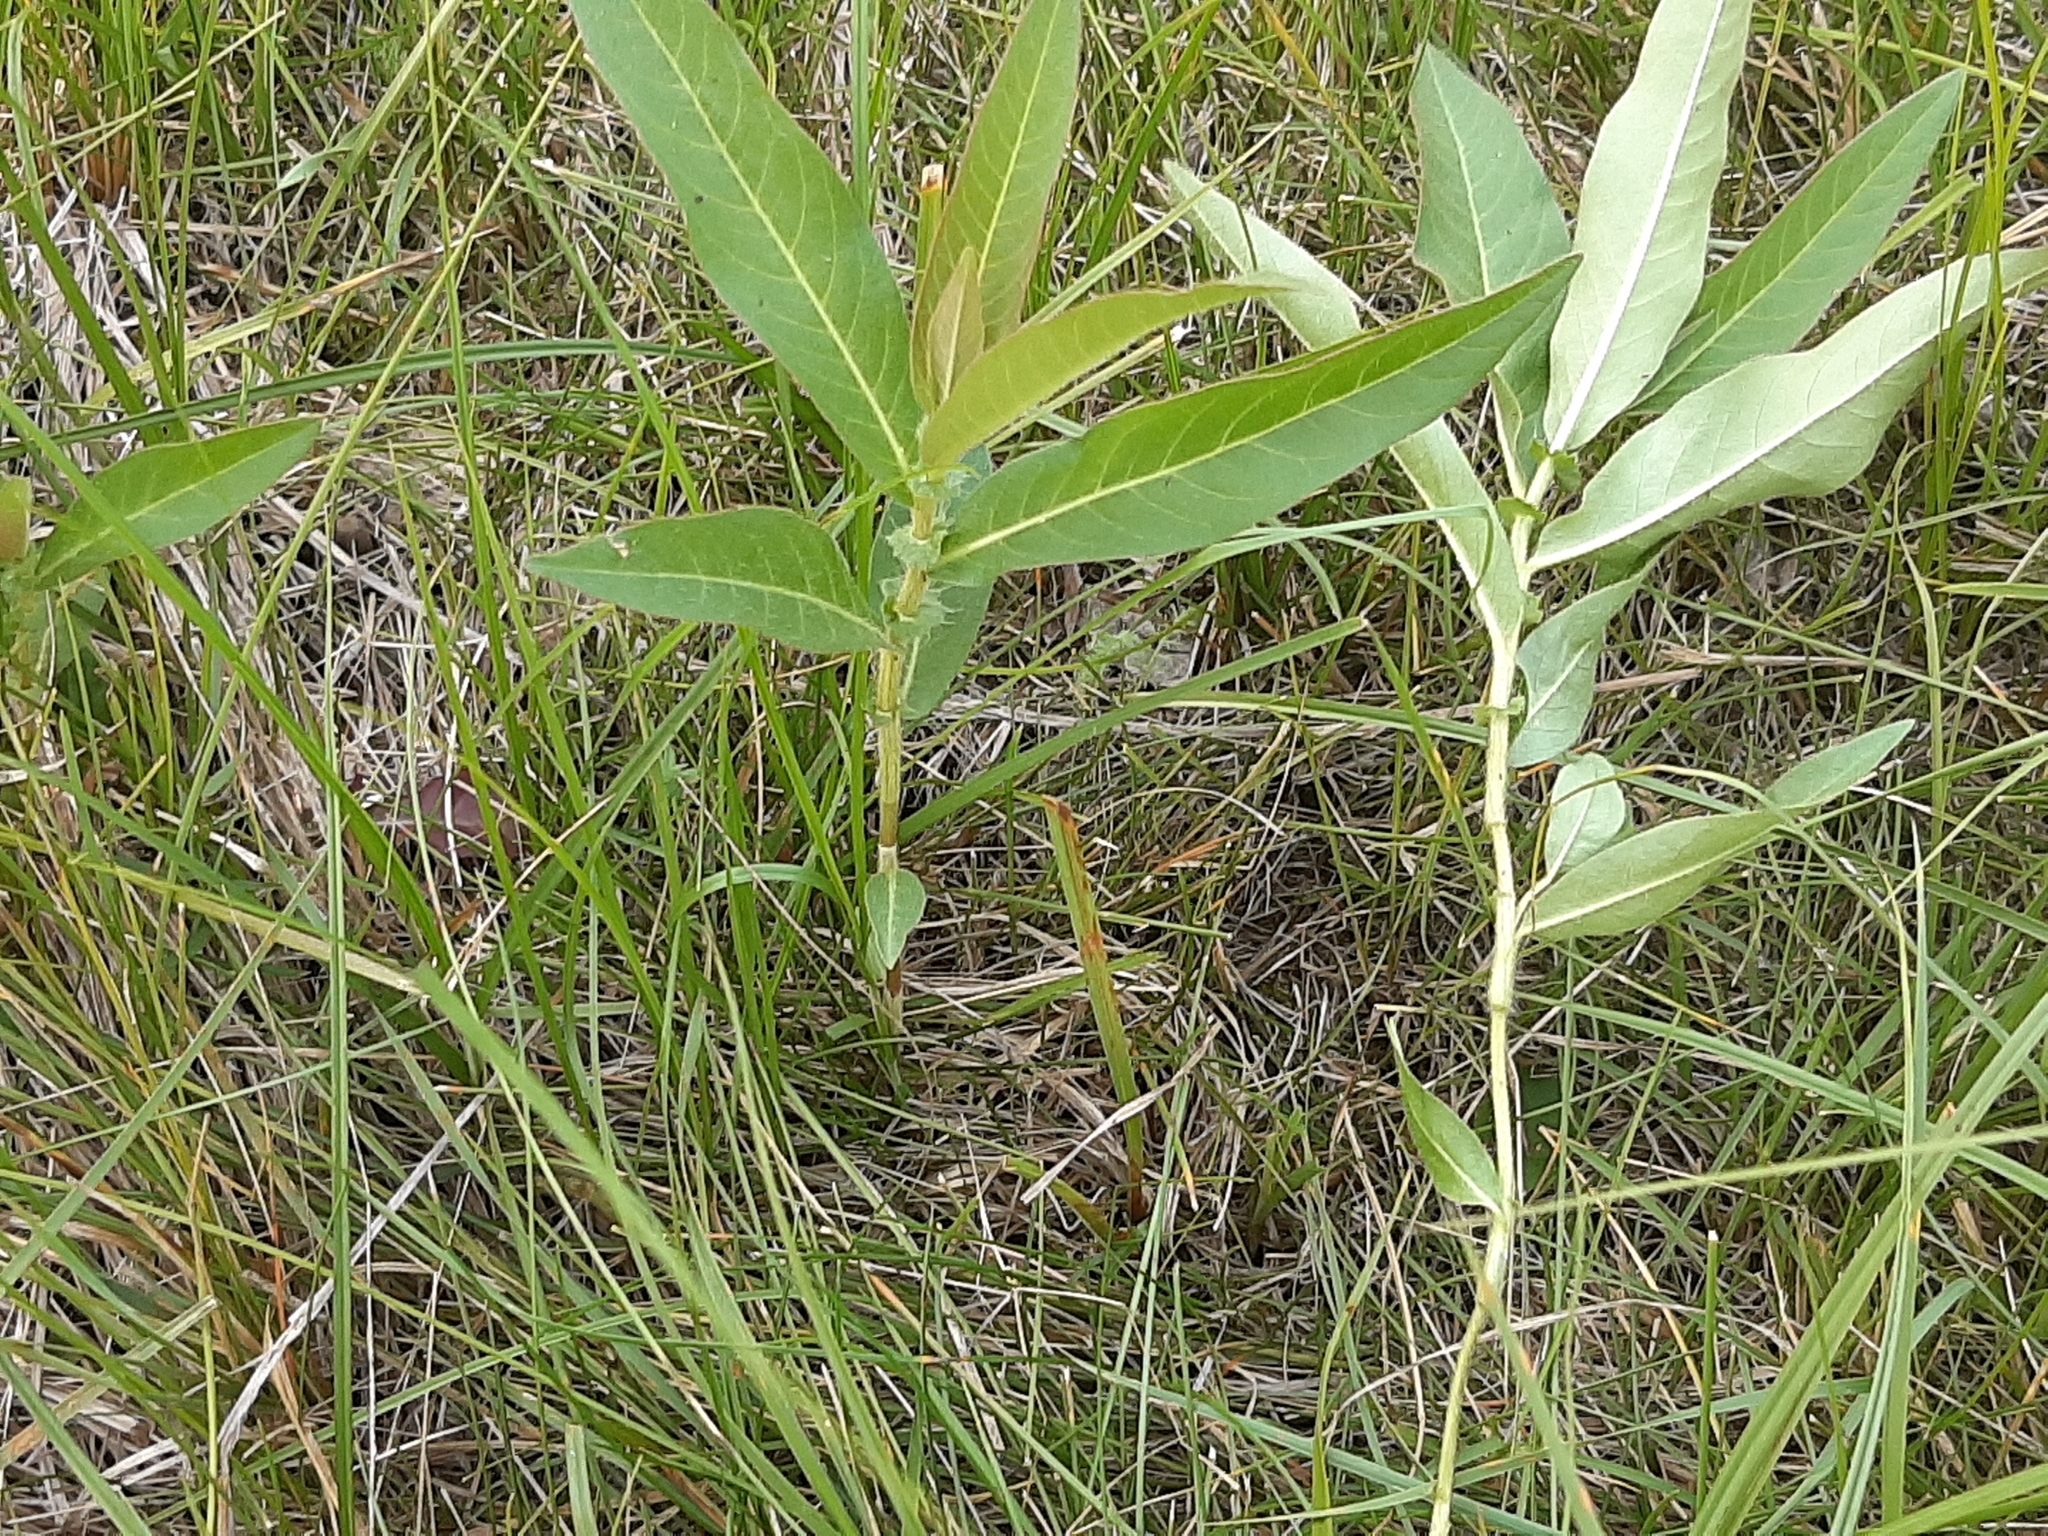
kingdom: Plantae
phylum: Tracheophyta
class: Magnoliopsida
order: Caryophyllales
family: Polygonaceae
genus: Persicaria
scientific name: Persicaria amphibia
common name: Amphibious bistort
